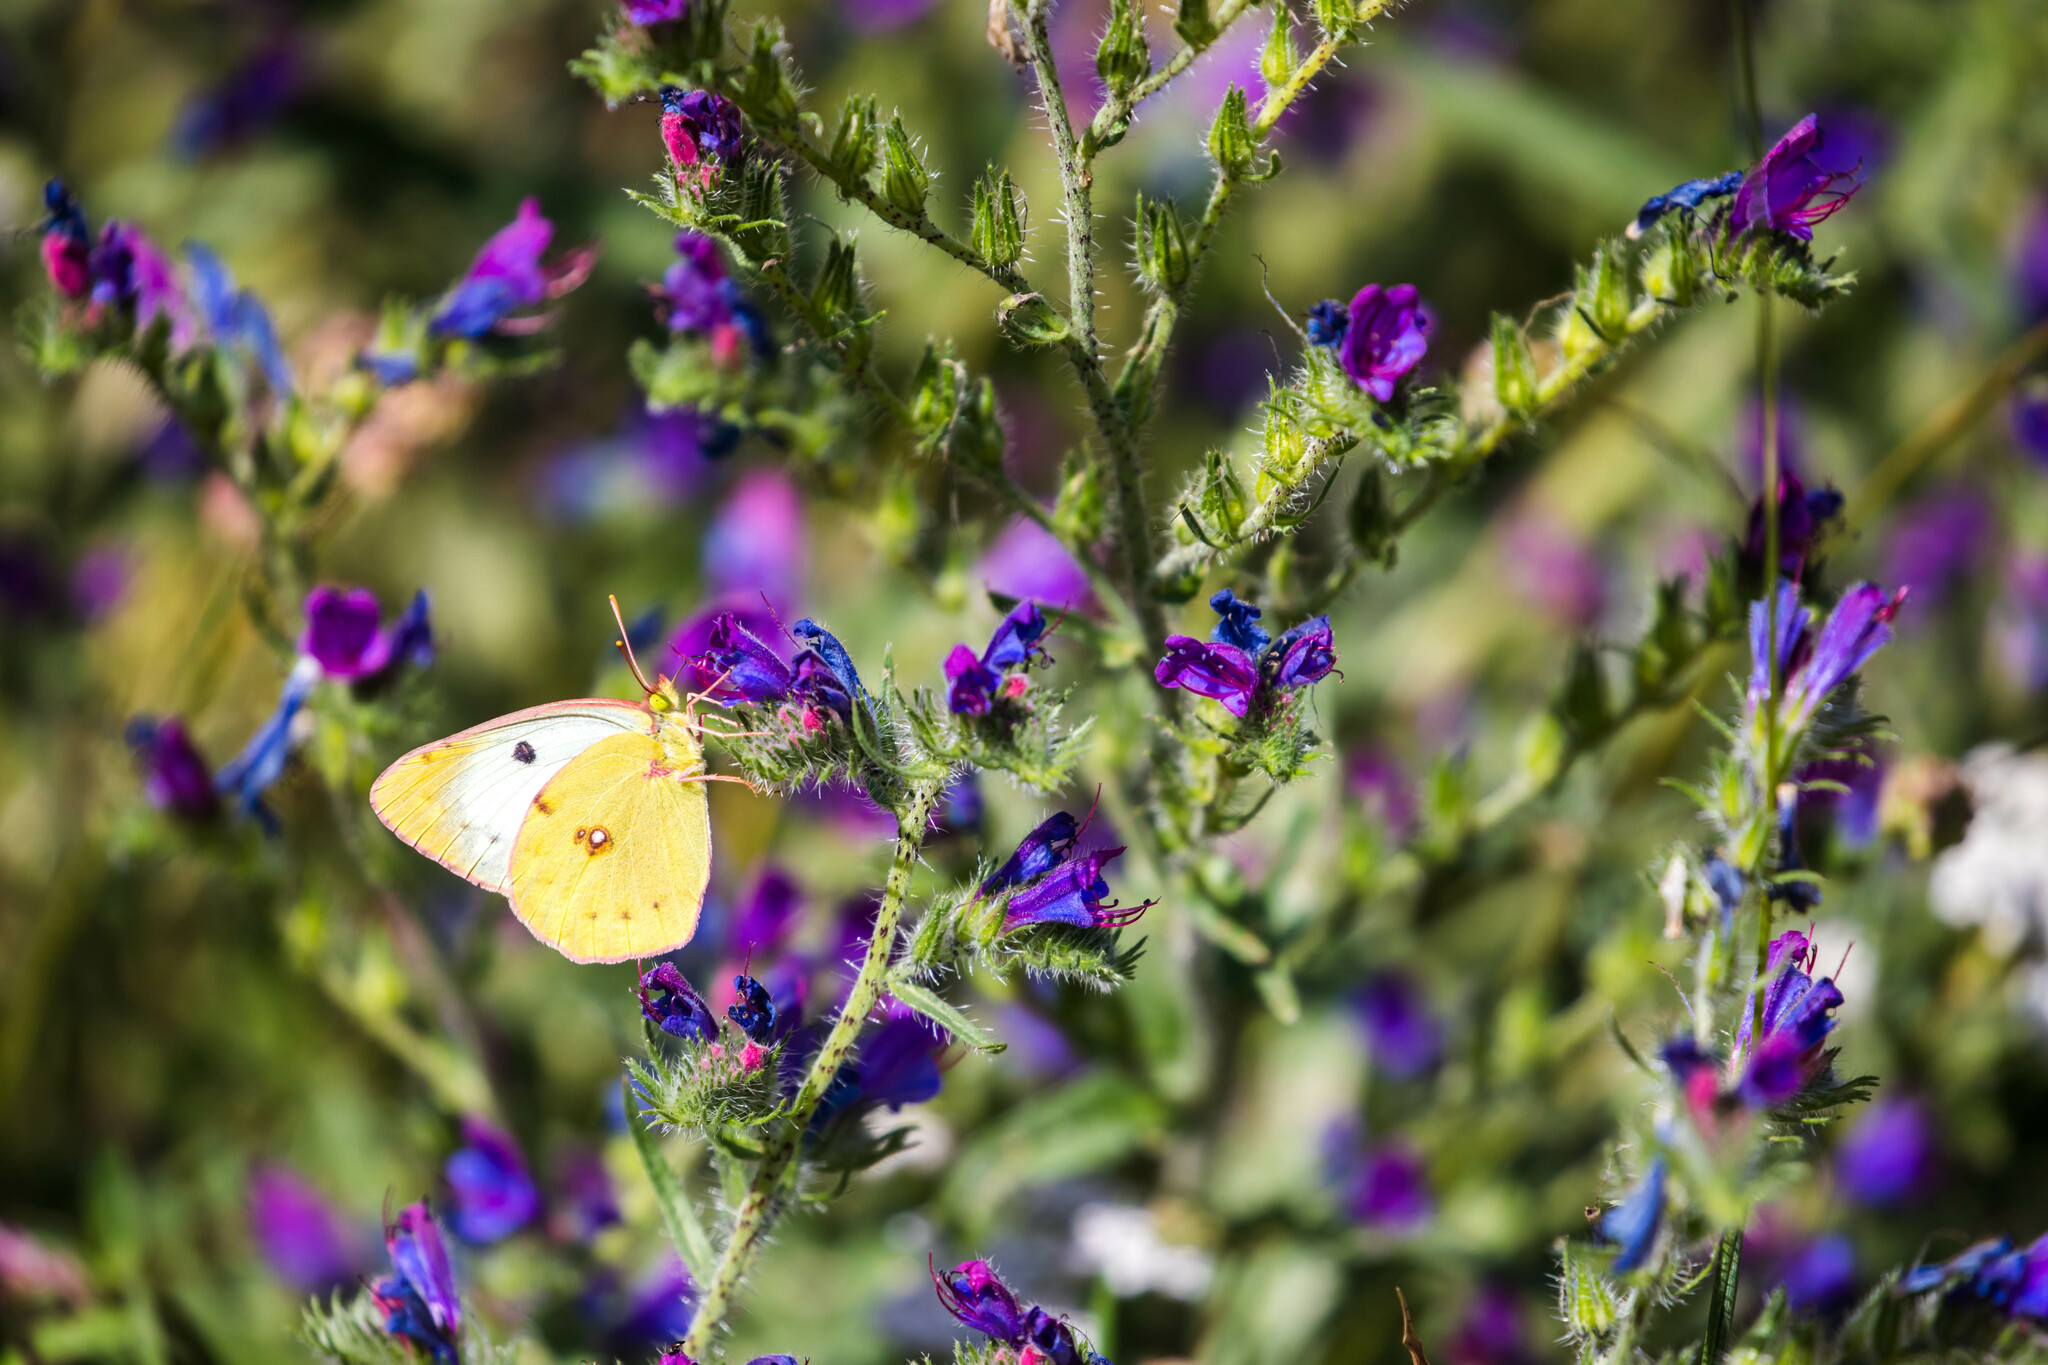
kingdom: Animalia
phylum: Arthropoda
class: Insecta
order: Lepidoptera
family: Pieridae
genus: Colias
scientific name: Colias alfacariensis
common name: Berger's clouded yellow
